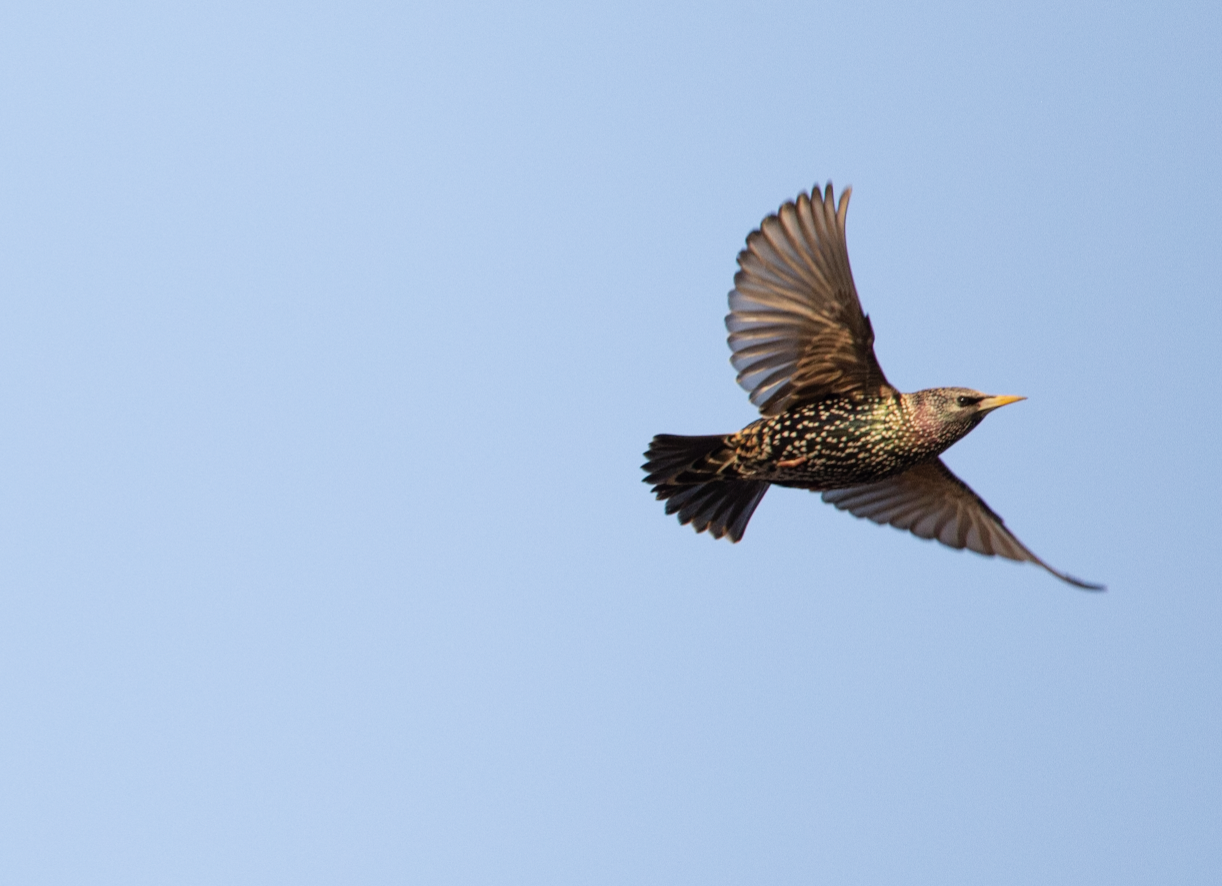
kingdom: Animalia
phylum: Chordata
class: Aves
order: Passeriformes
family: Sturnidae
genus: Sturnus
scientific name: Sturnus vulgaris
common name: Common starling
